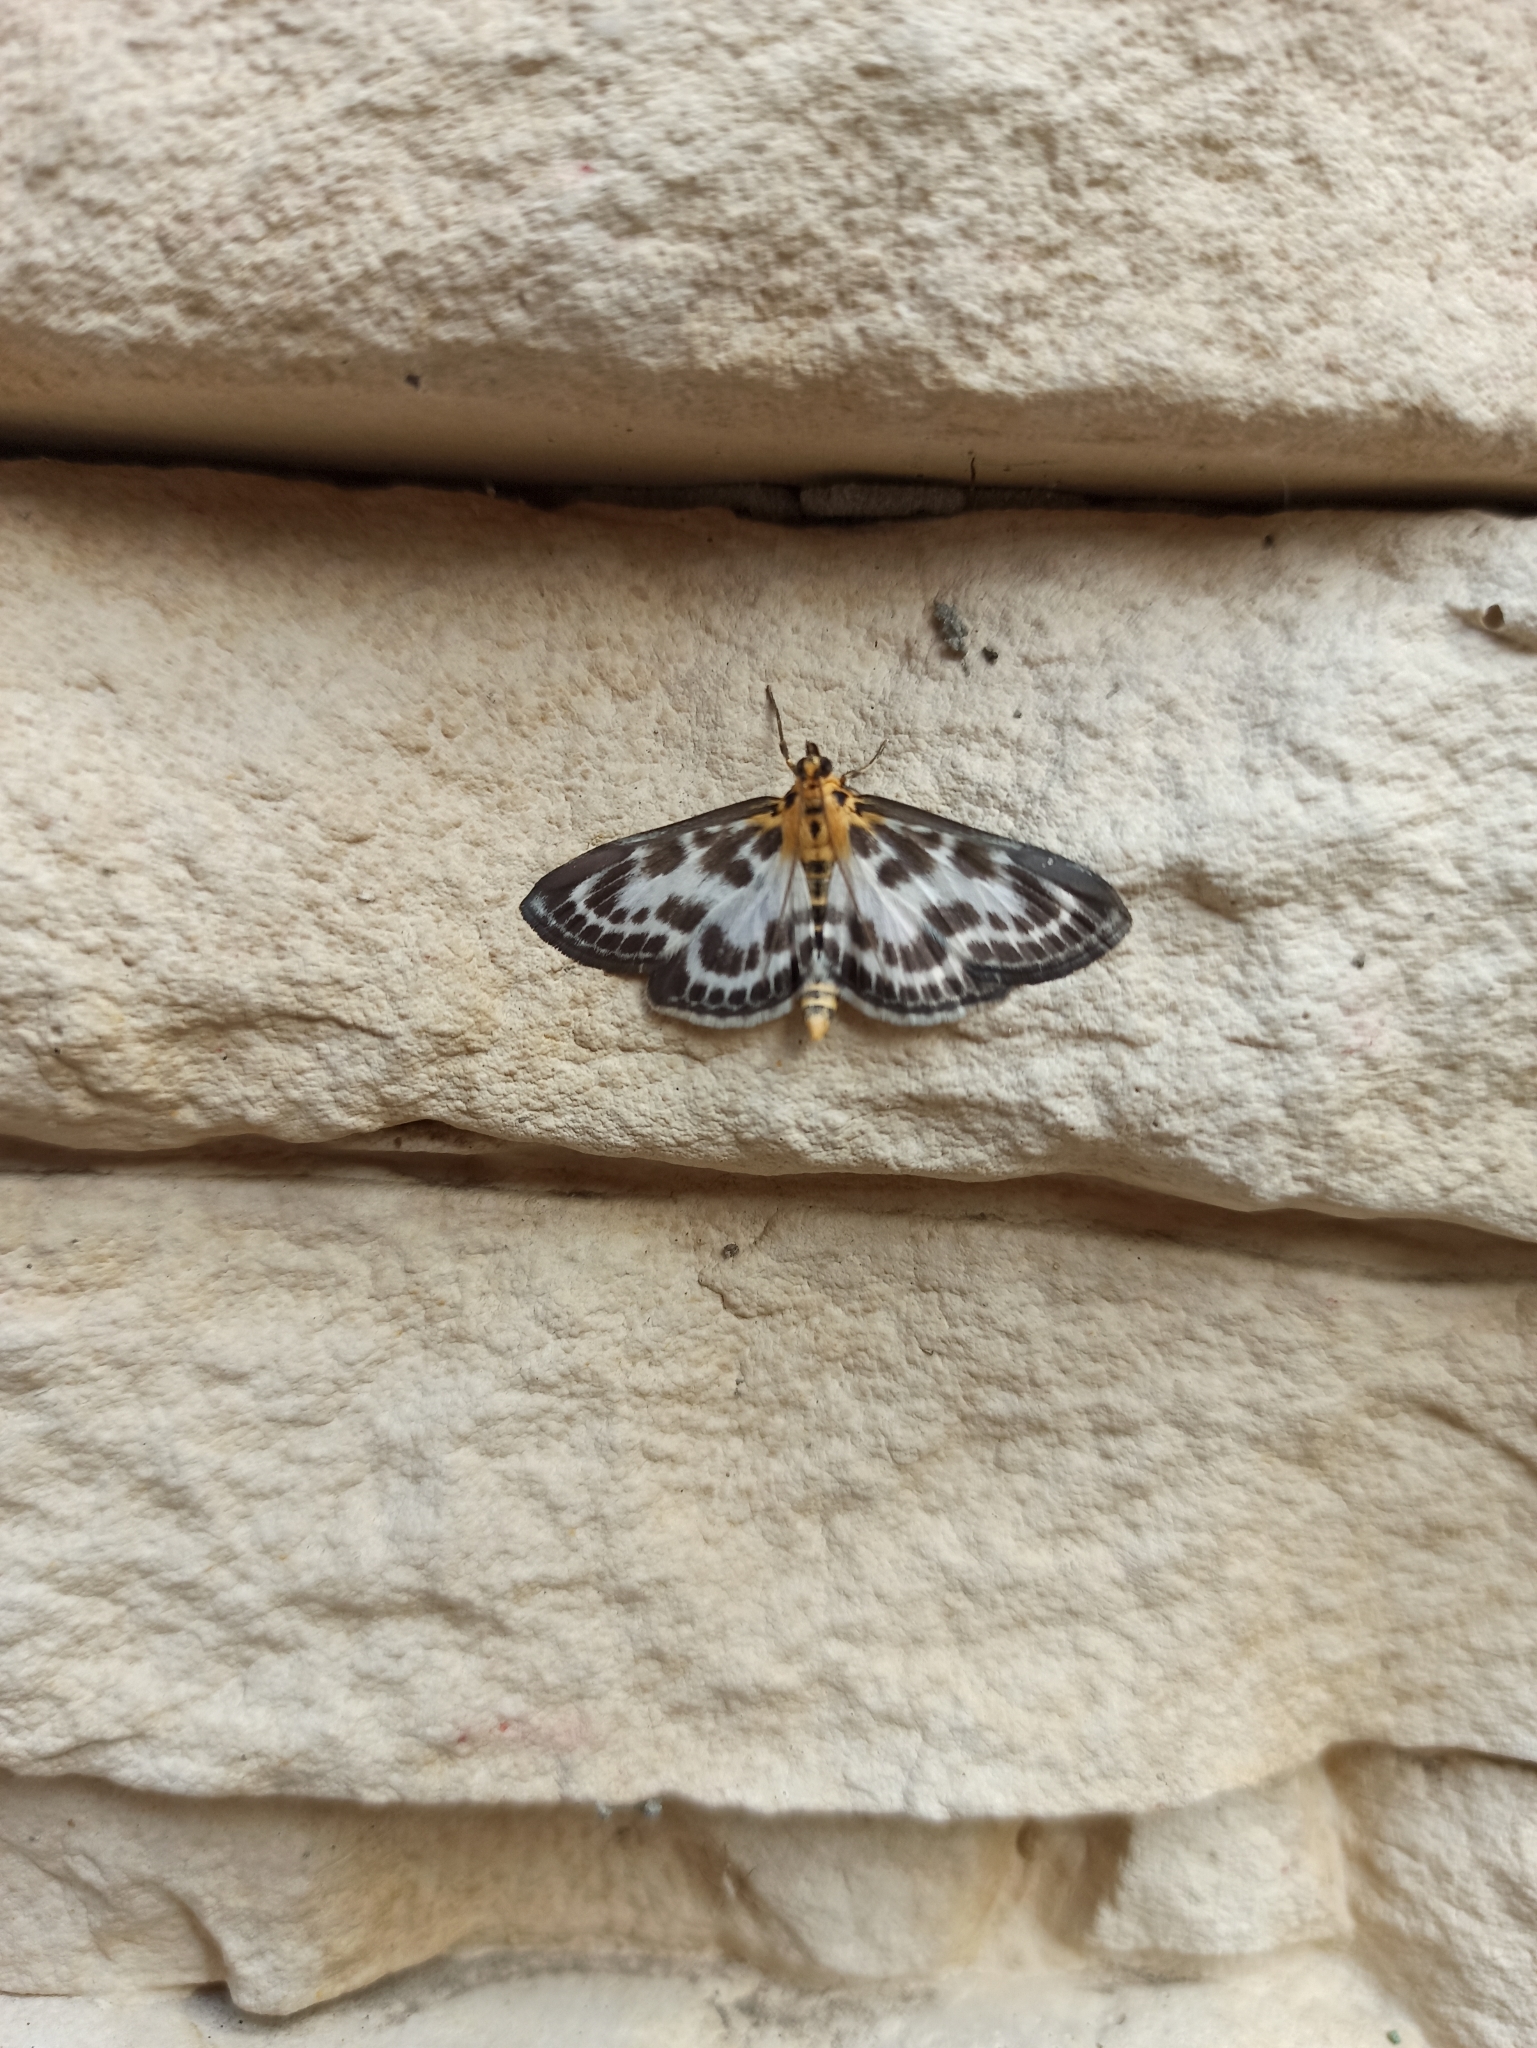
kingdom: Animalia
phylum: Arthropoda
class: Insecta
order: Lepidoptera
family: Crambidae
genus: Anania
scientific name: Anania hortulata
